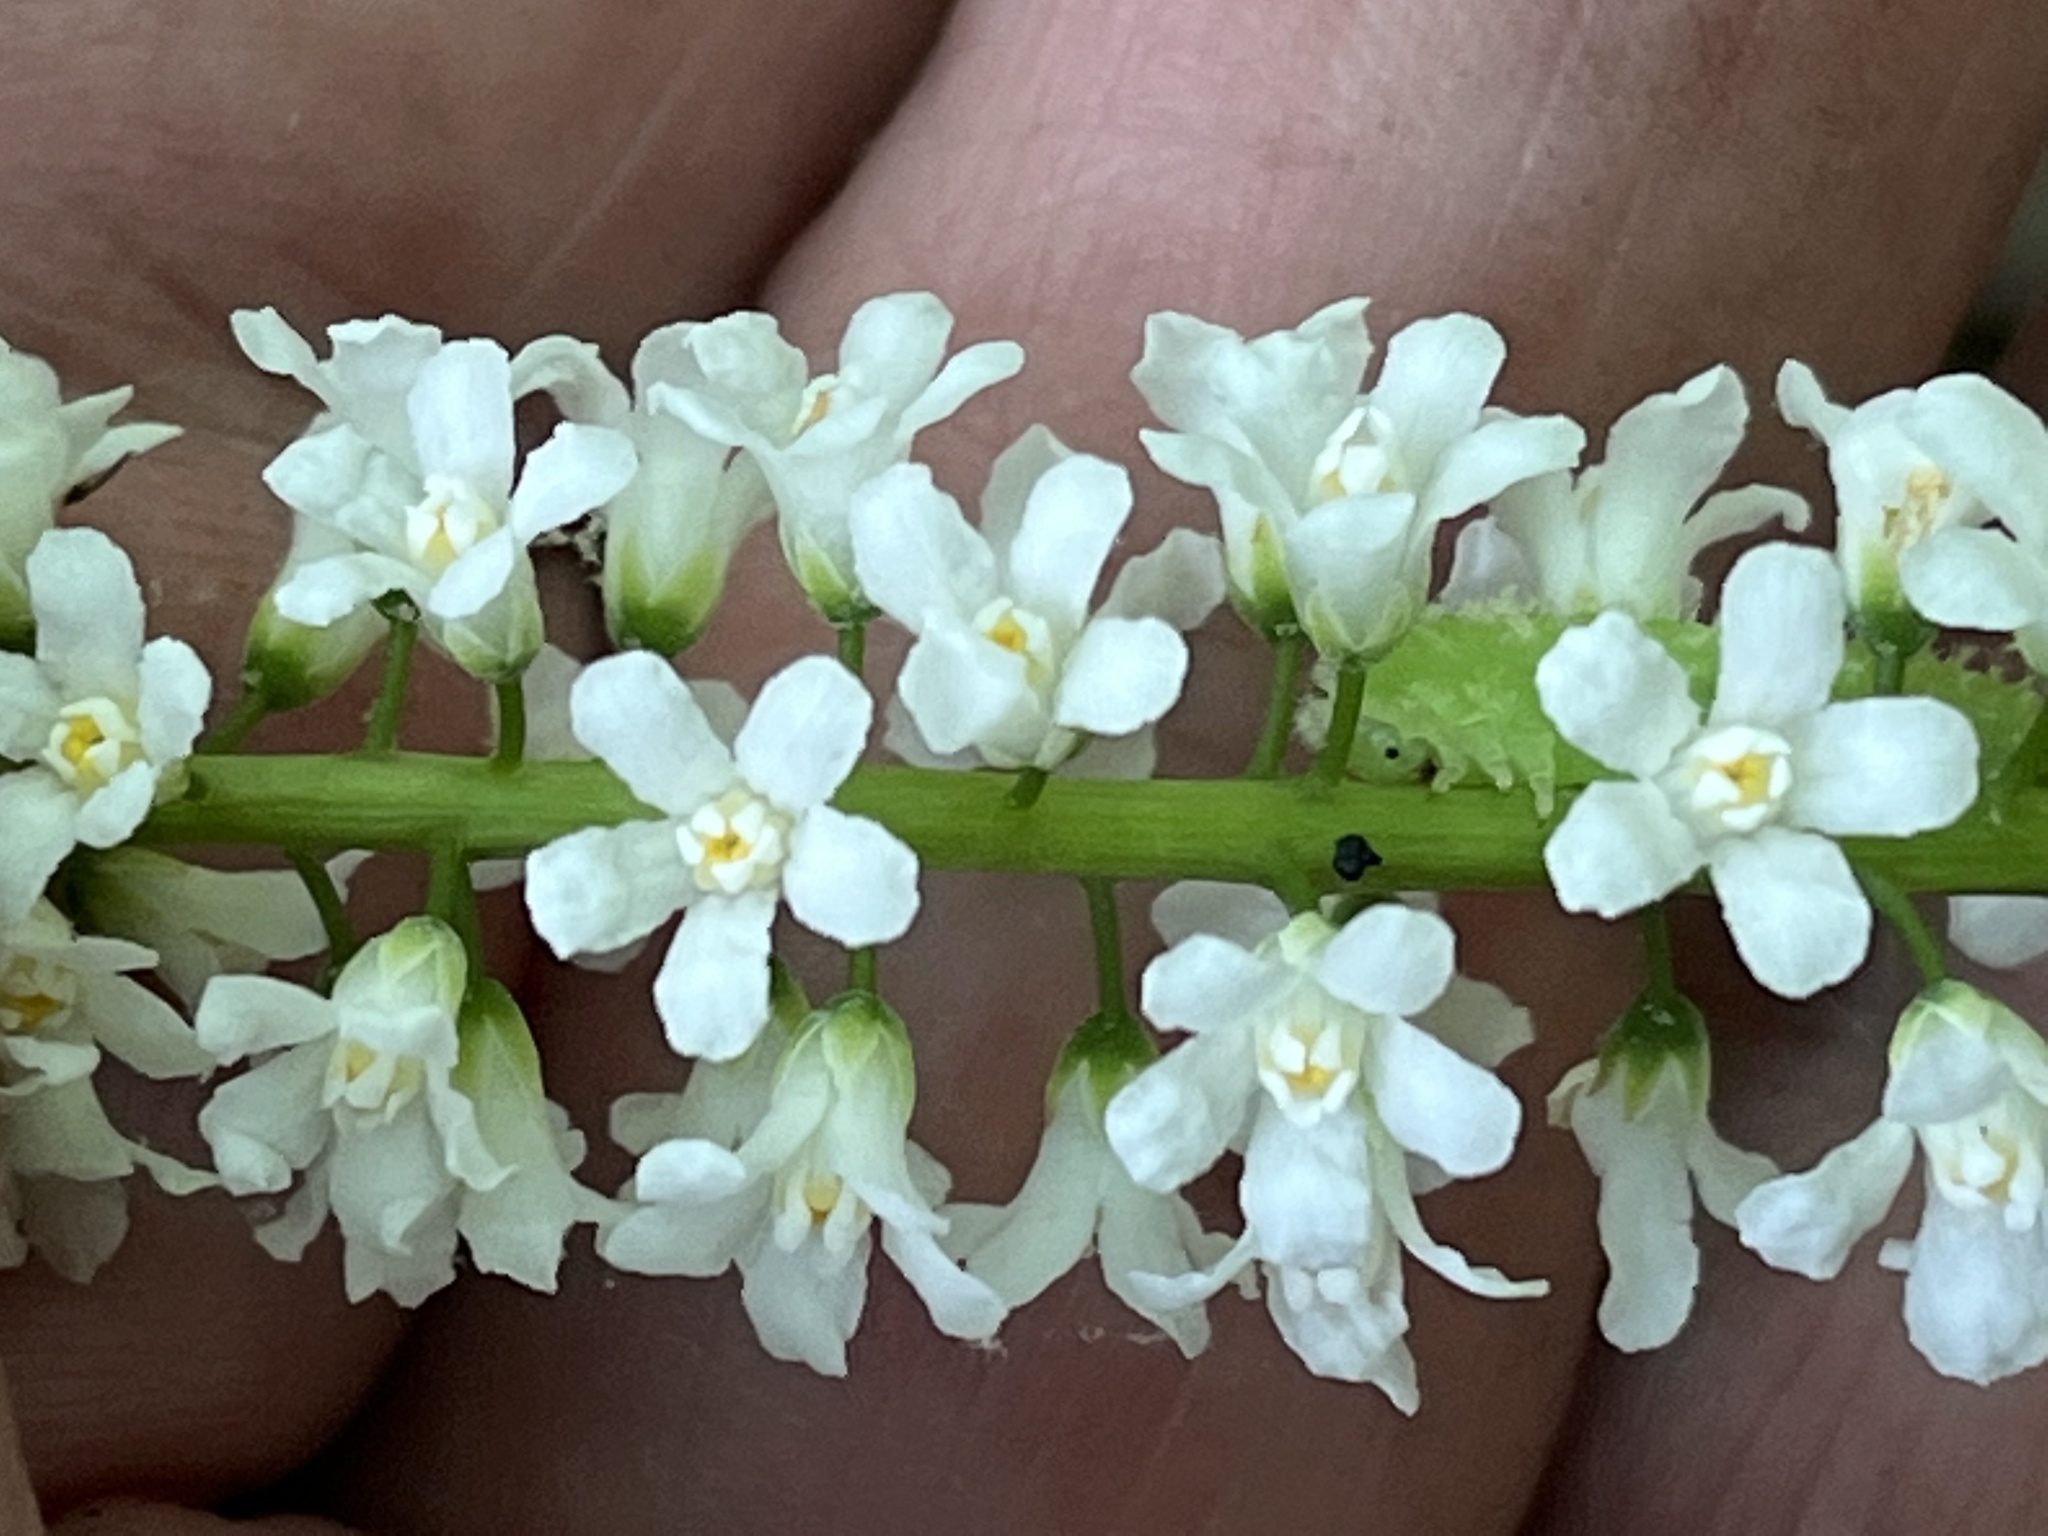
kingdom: Plantae
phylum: Tracheophyta
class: Magnoliopsida
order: Ericales
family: Diapensiaceae
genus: Galax
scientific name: Galax urceolata
